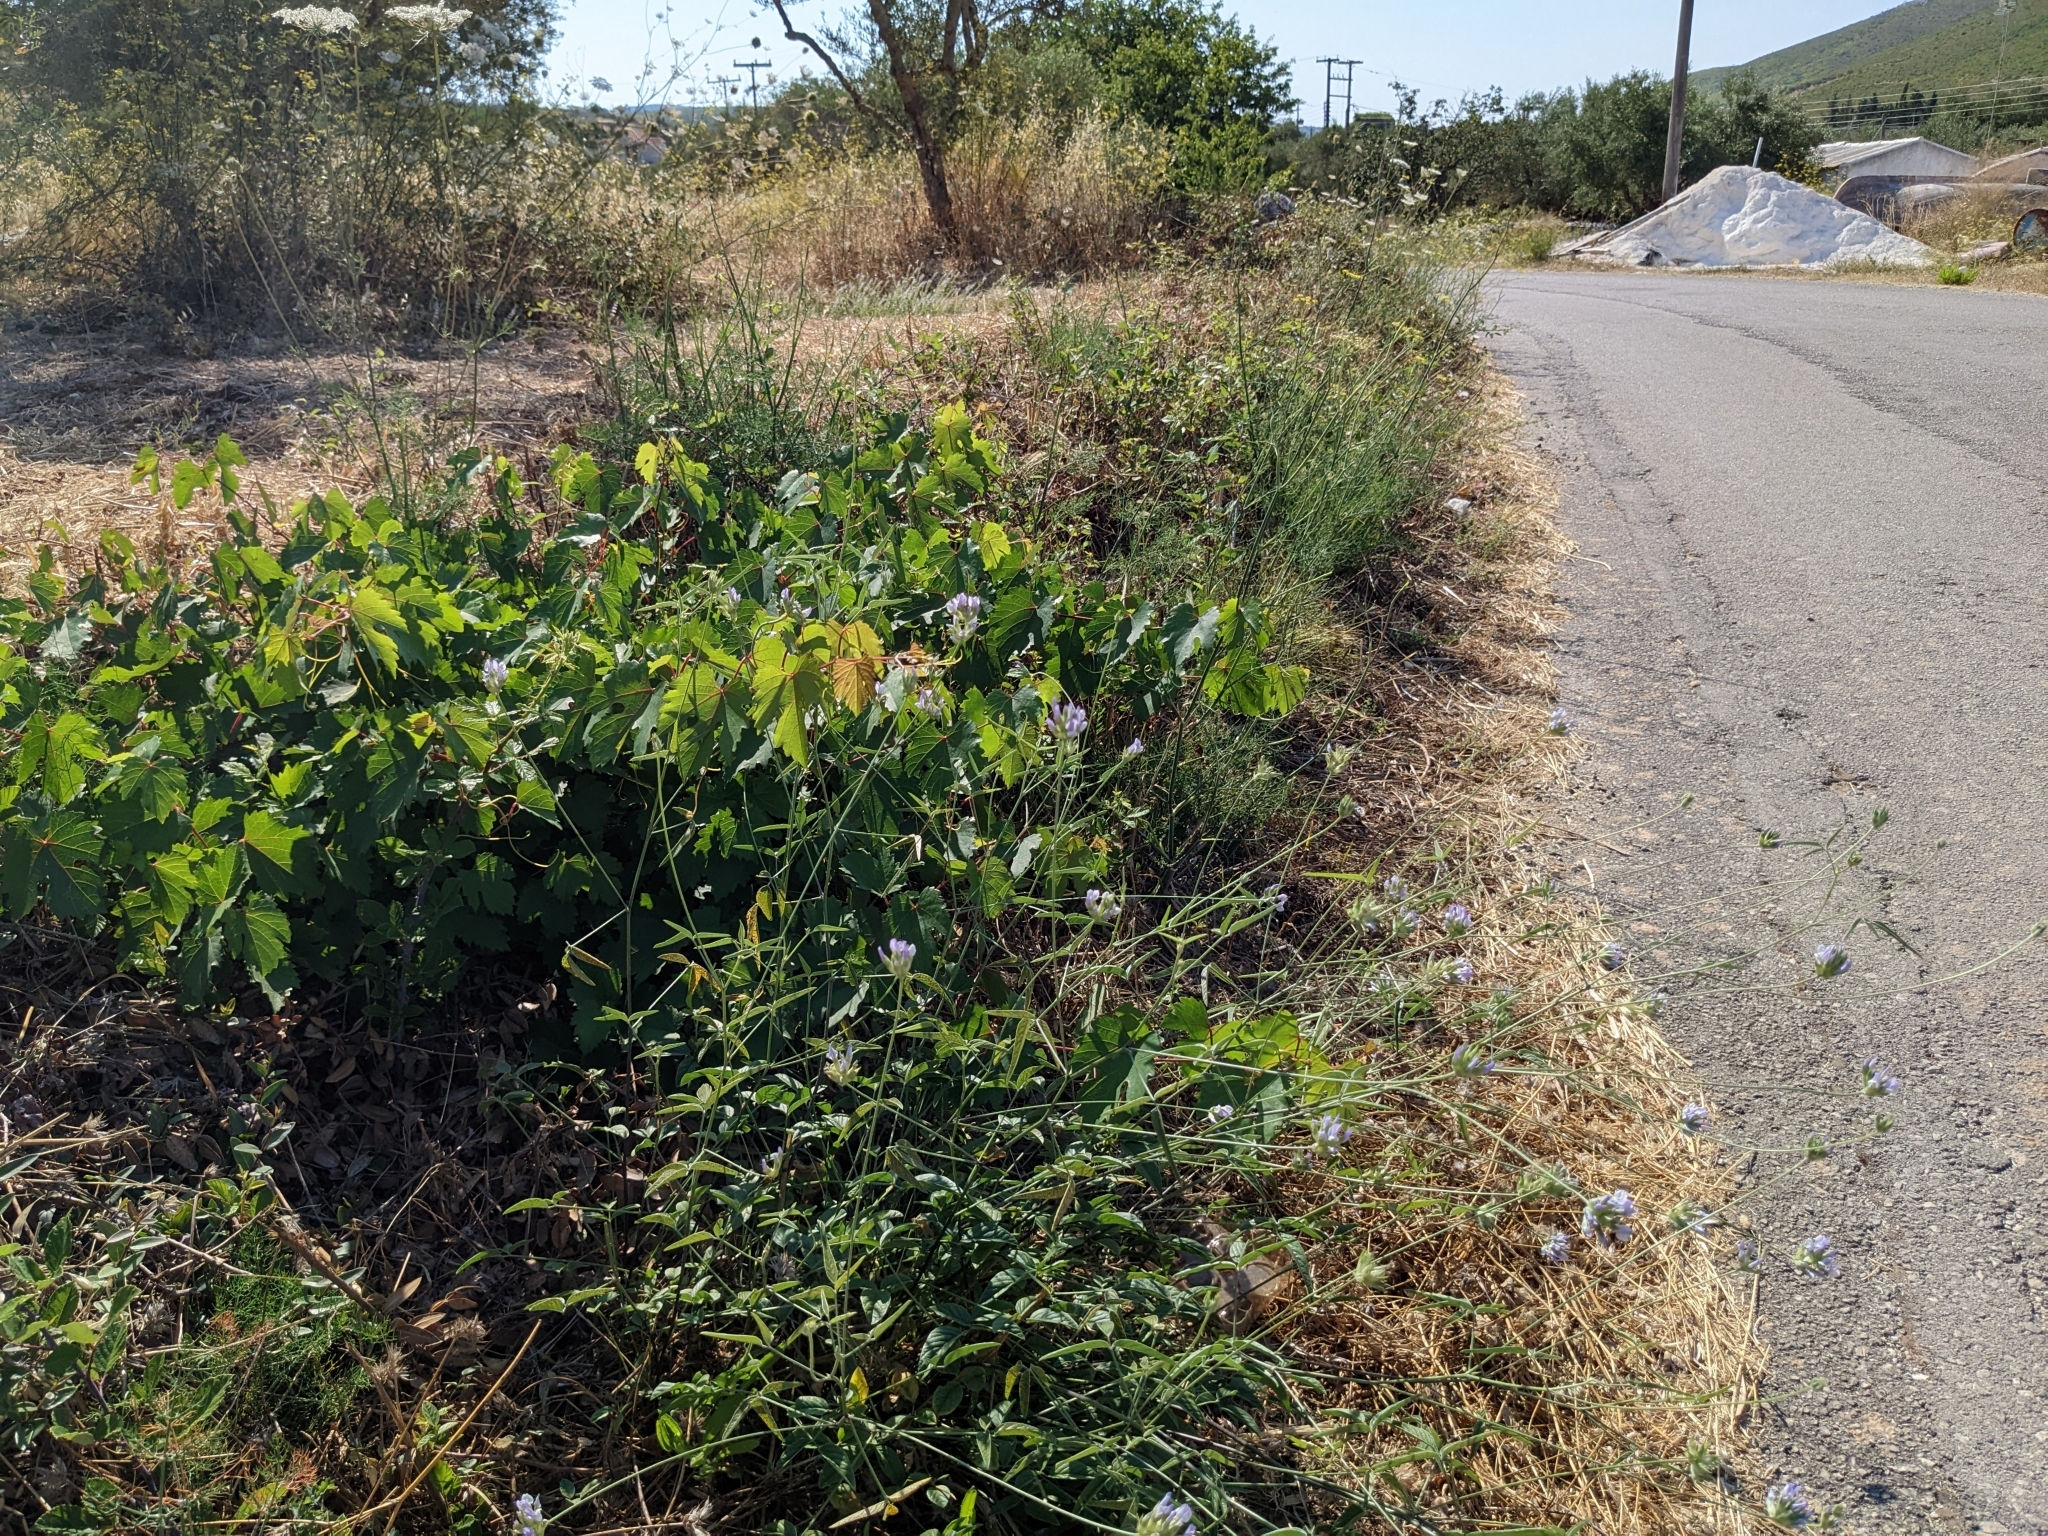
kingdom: Plantae
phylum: Tracheophyta
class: Magnoliopsida
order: Fabales
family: Fabaceae
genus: Bituminaria
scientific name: Bituminaria bituminosa
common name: Arabian pea
